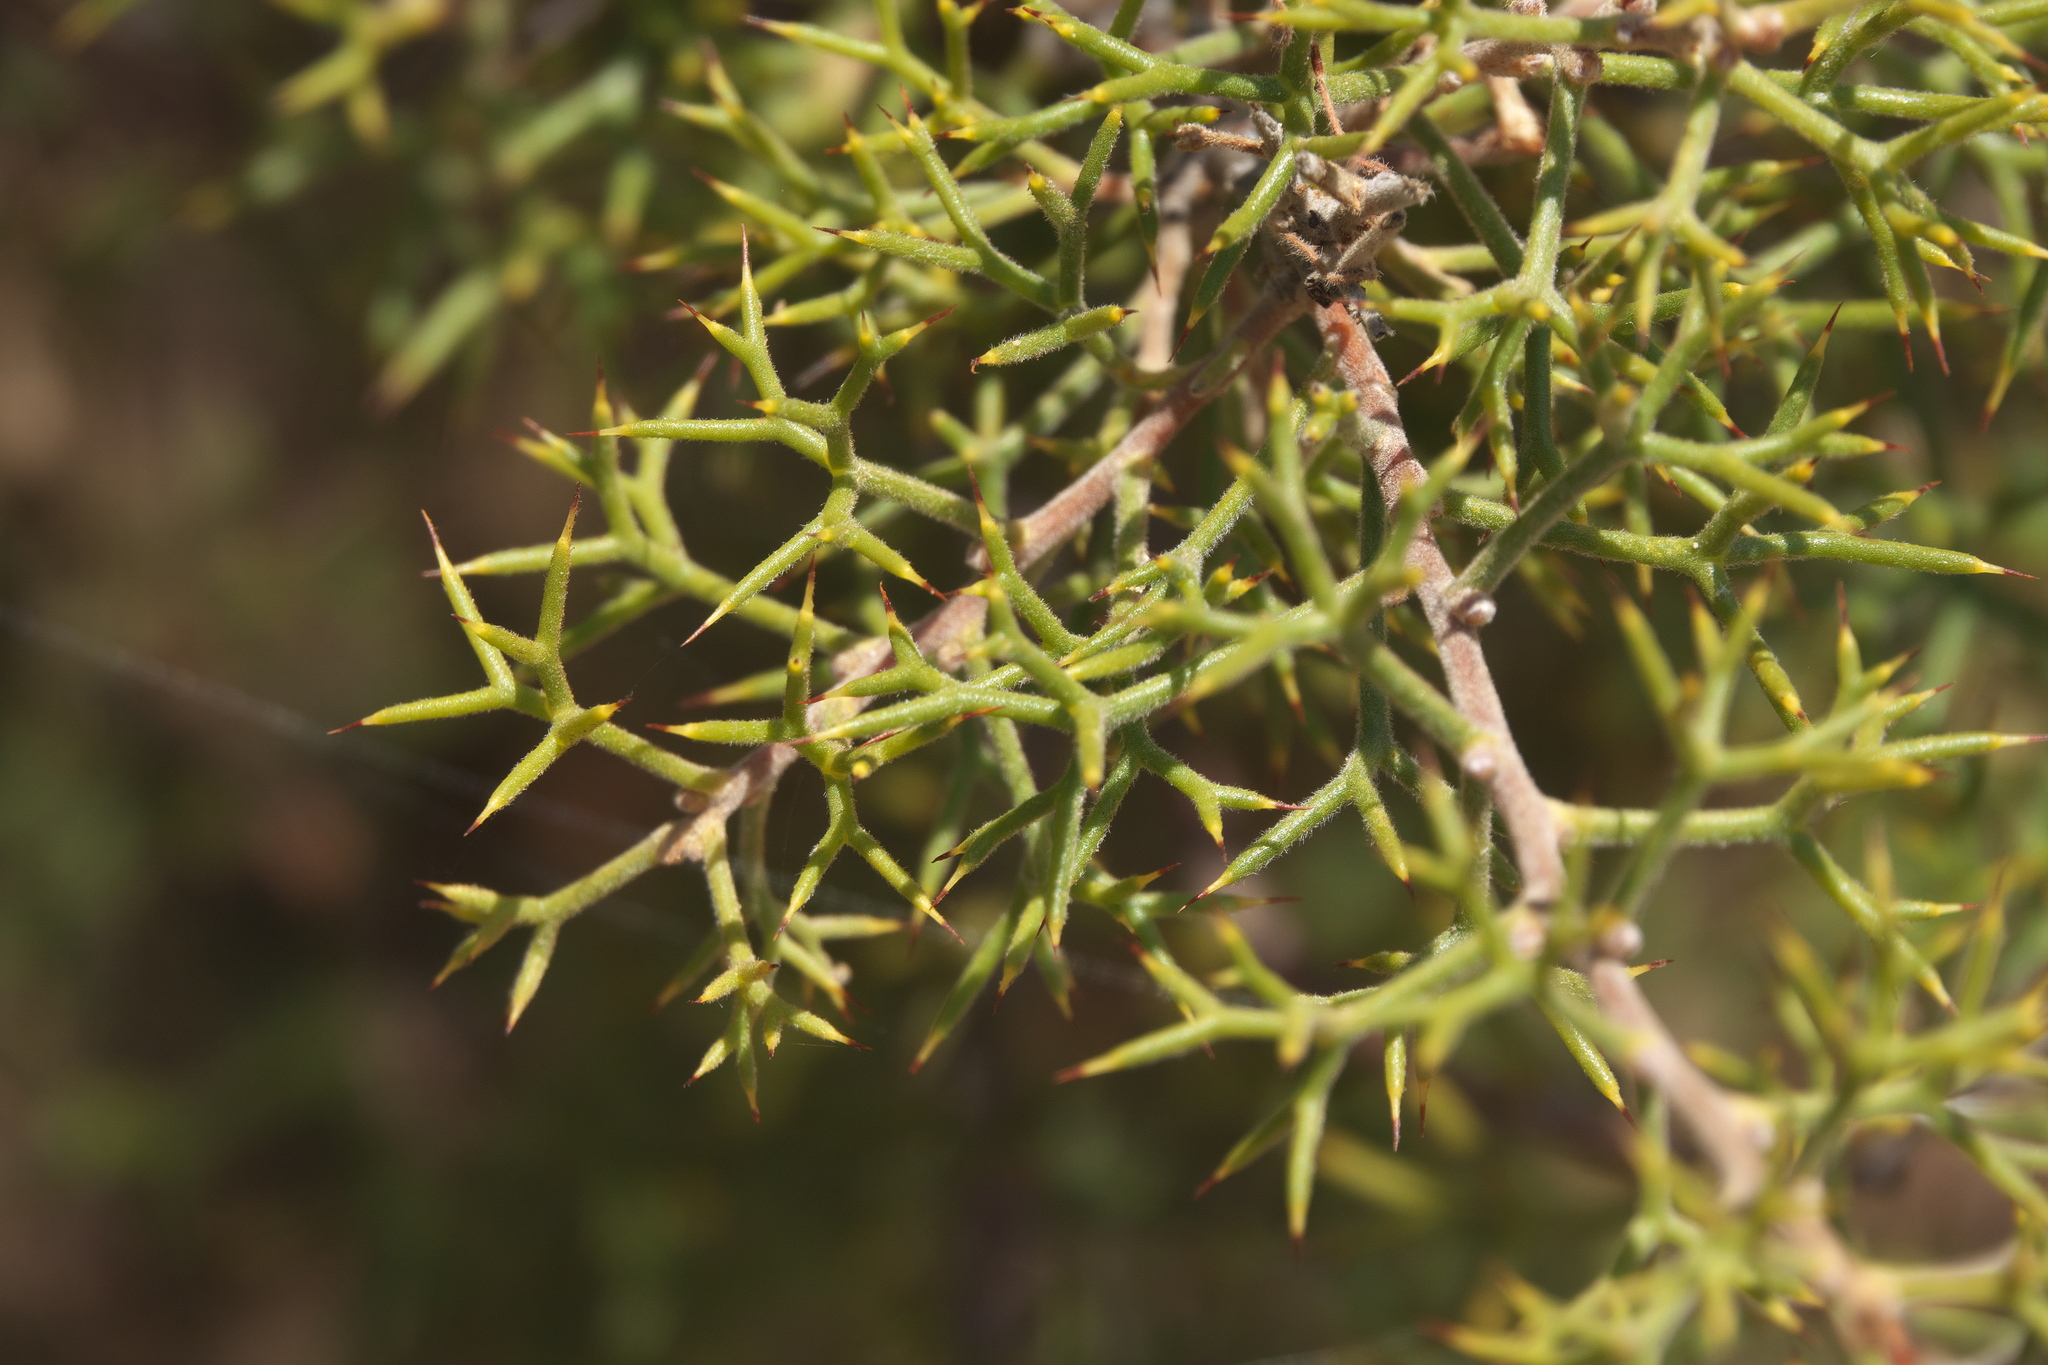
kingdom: Plantae
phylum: Tracheophyta
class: Magnoliopsida
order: Proteales
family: Proteaceae
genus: Hakea
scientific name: Hakea lissocarpha
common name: Honey bush
